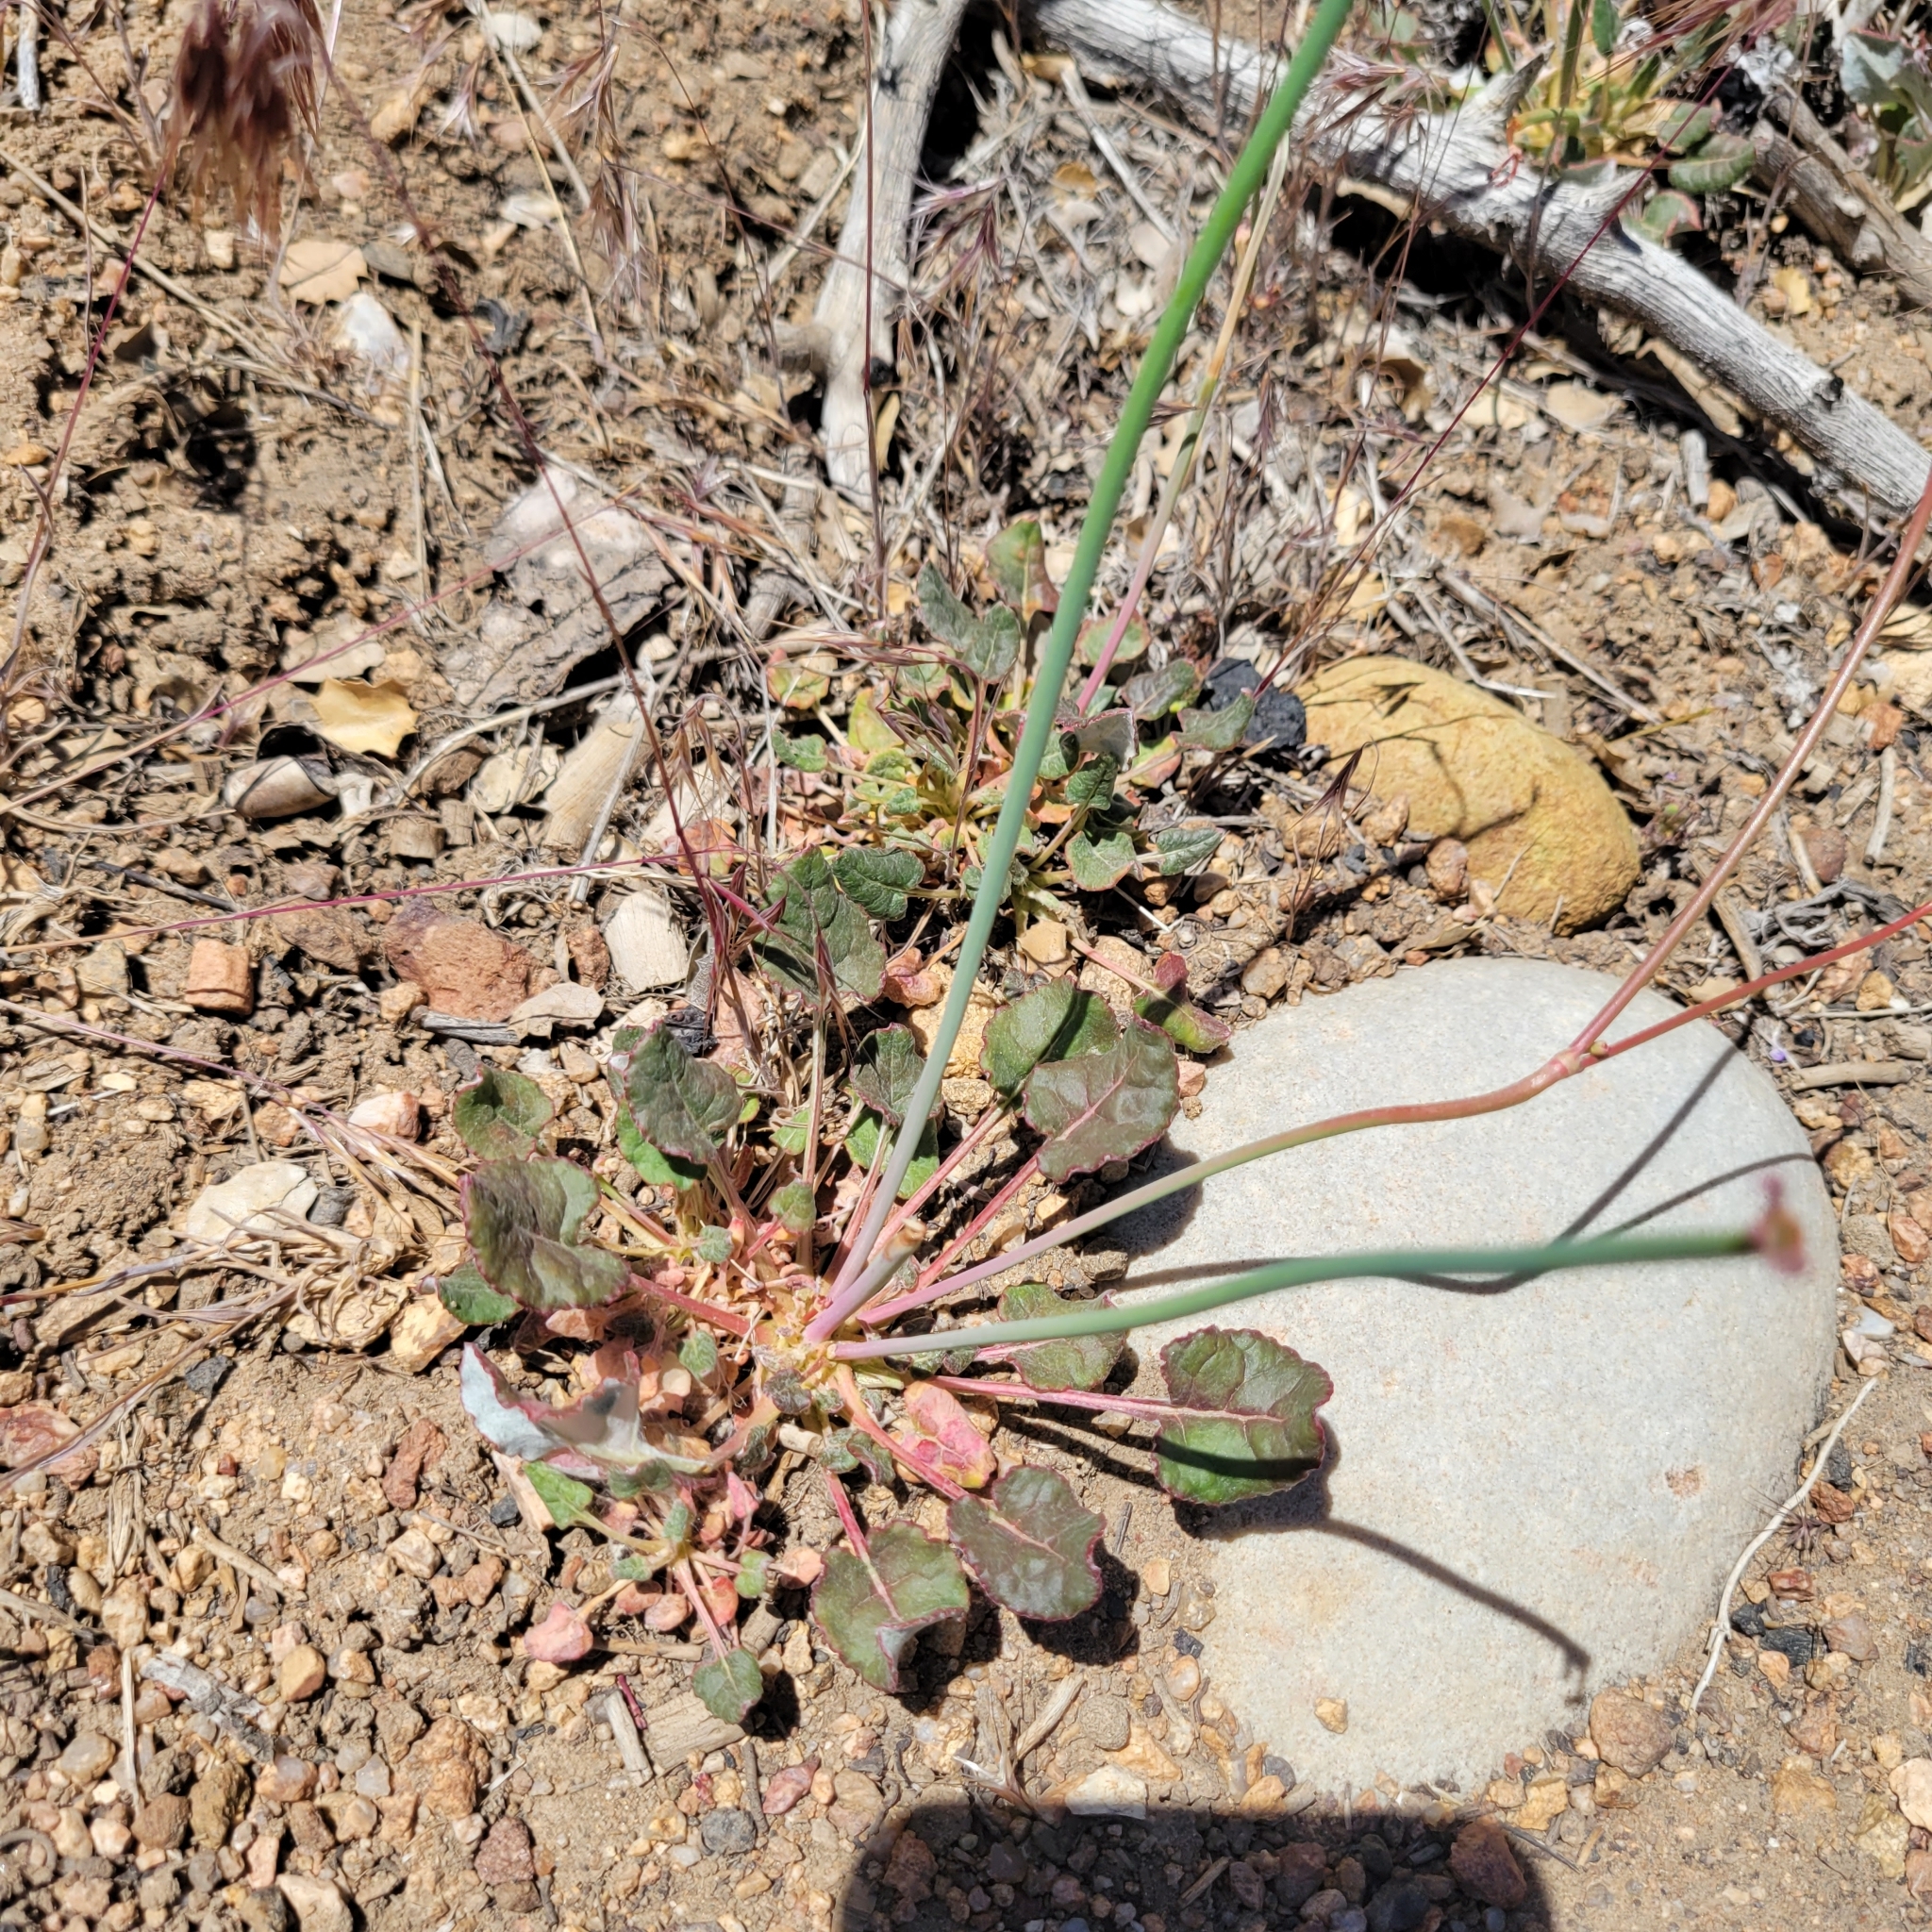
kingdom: Plantae
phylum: Tracheophyta
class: Magnoliopsida
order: Caryophyllales
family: Polygonaceae
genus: Eriogonum
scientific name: Eriogonum nudum
